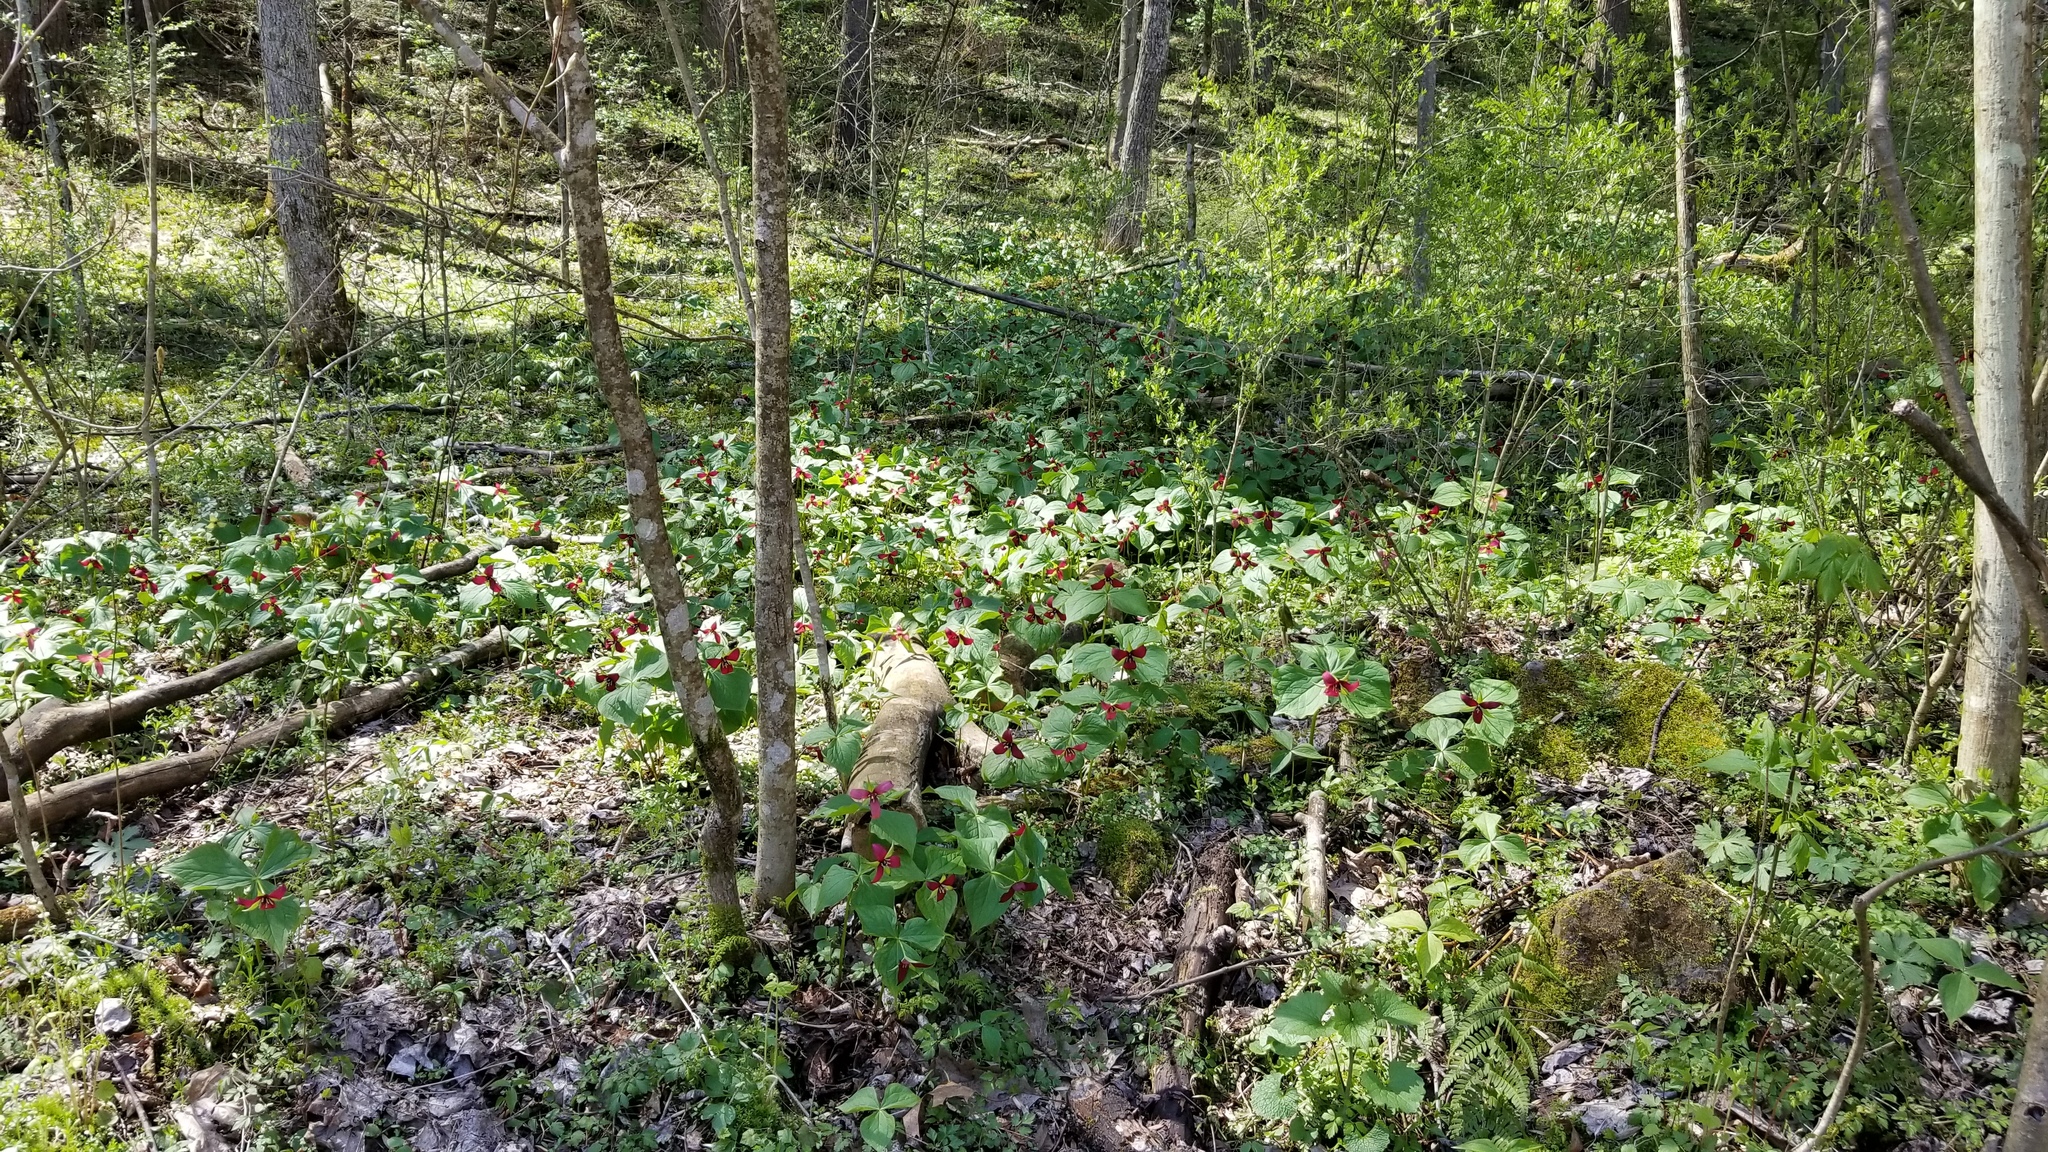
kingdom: Plantae
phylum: Tracheophyta
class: Liliopsida
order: Liliales
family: Melanthiaceae
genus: Trillium
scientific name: Trillium erectum
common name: Purple trillium
